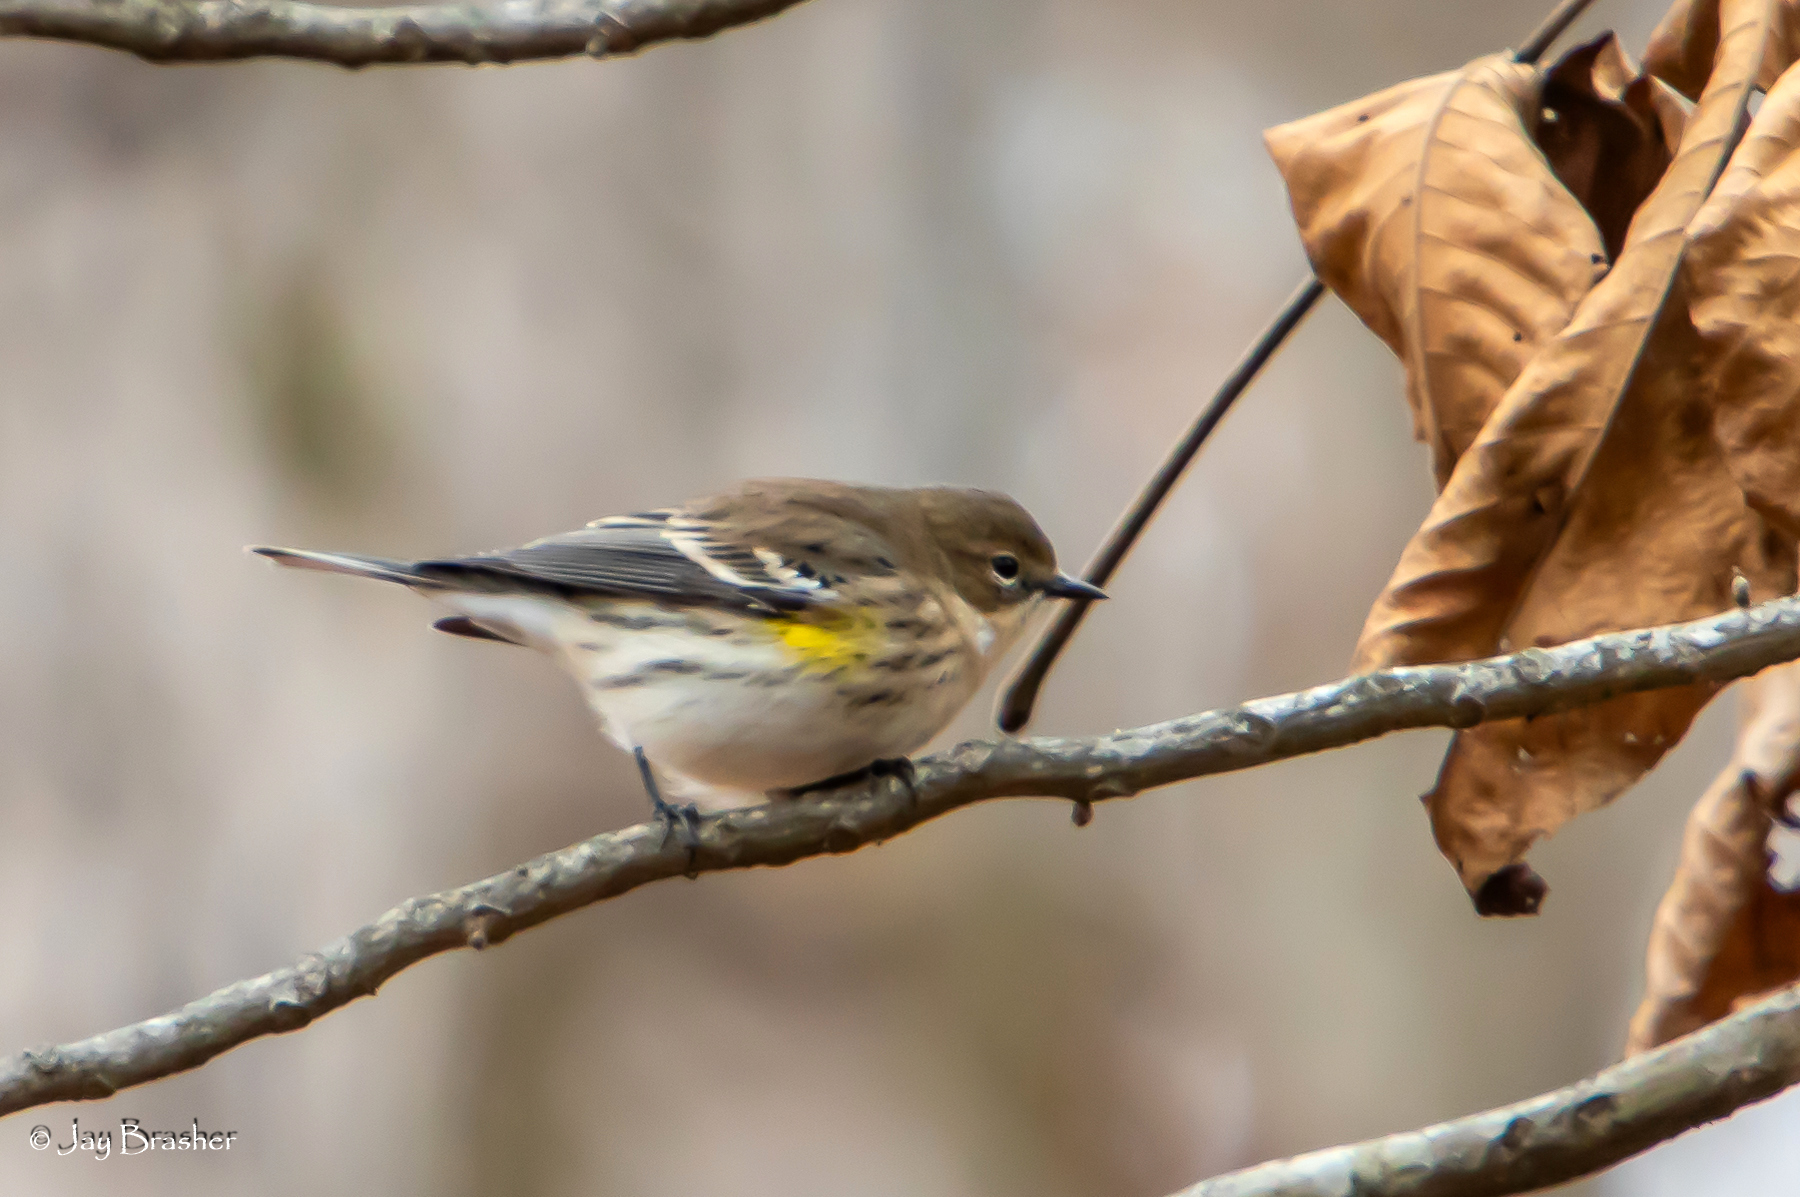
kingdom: Animalia
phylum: Chordata
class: Aves
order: Passeriformes
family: Parulidae
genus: Setophaga
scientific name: Setophaga coronata
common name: Myrtle warbler
